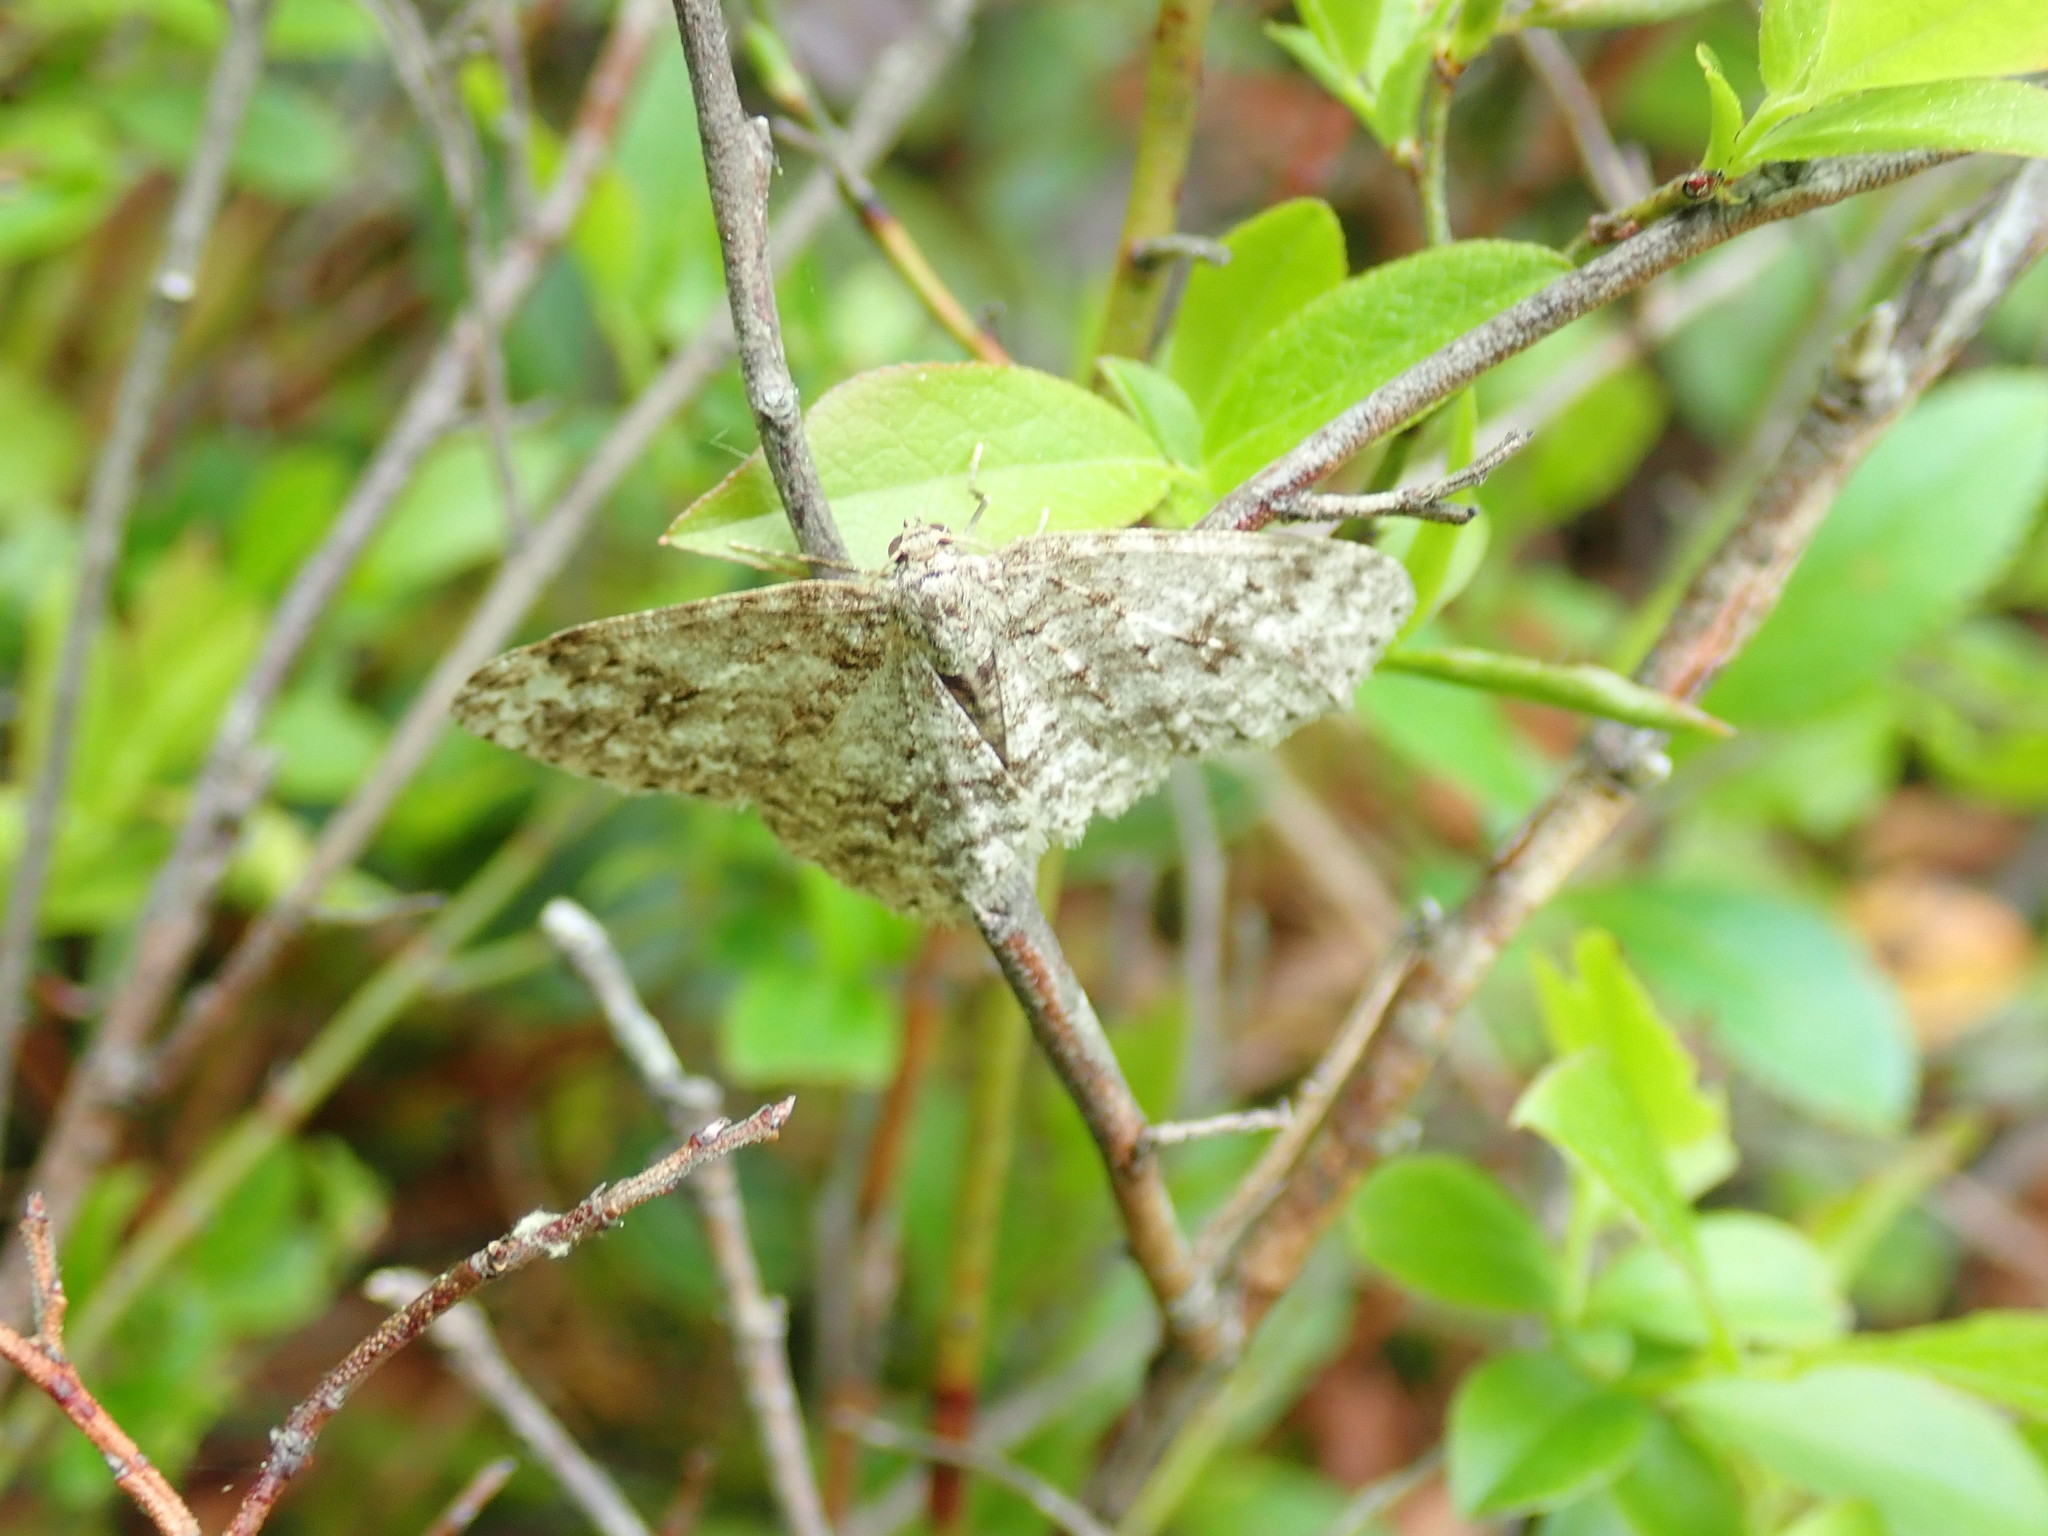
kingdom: Animalia
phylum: Arthropoda
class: Insecta
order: Lepidoptera
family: Geometridae
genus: Ectropis
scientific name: Ectropis crepuscularia
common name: Engrailed
